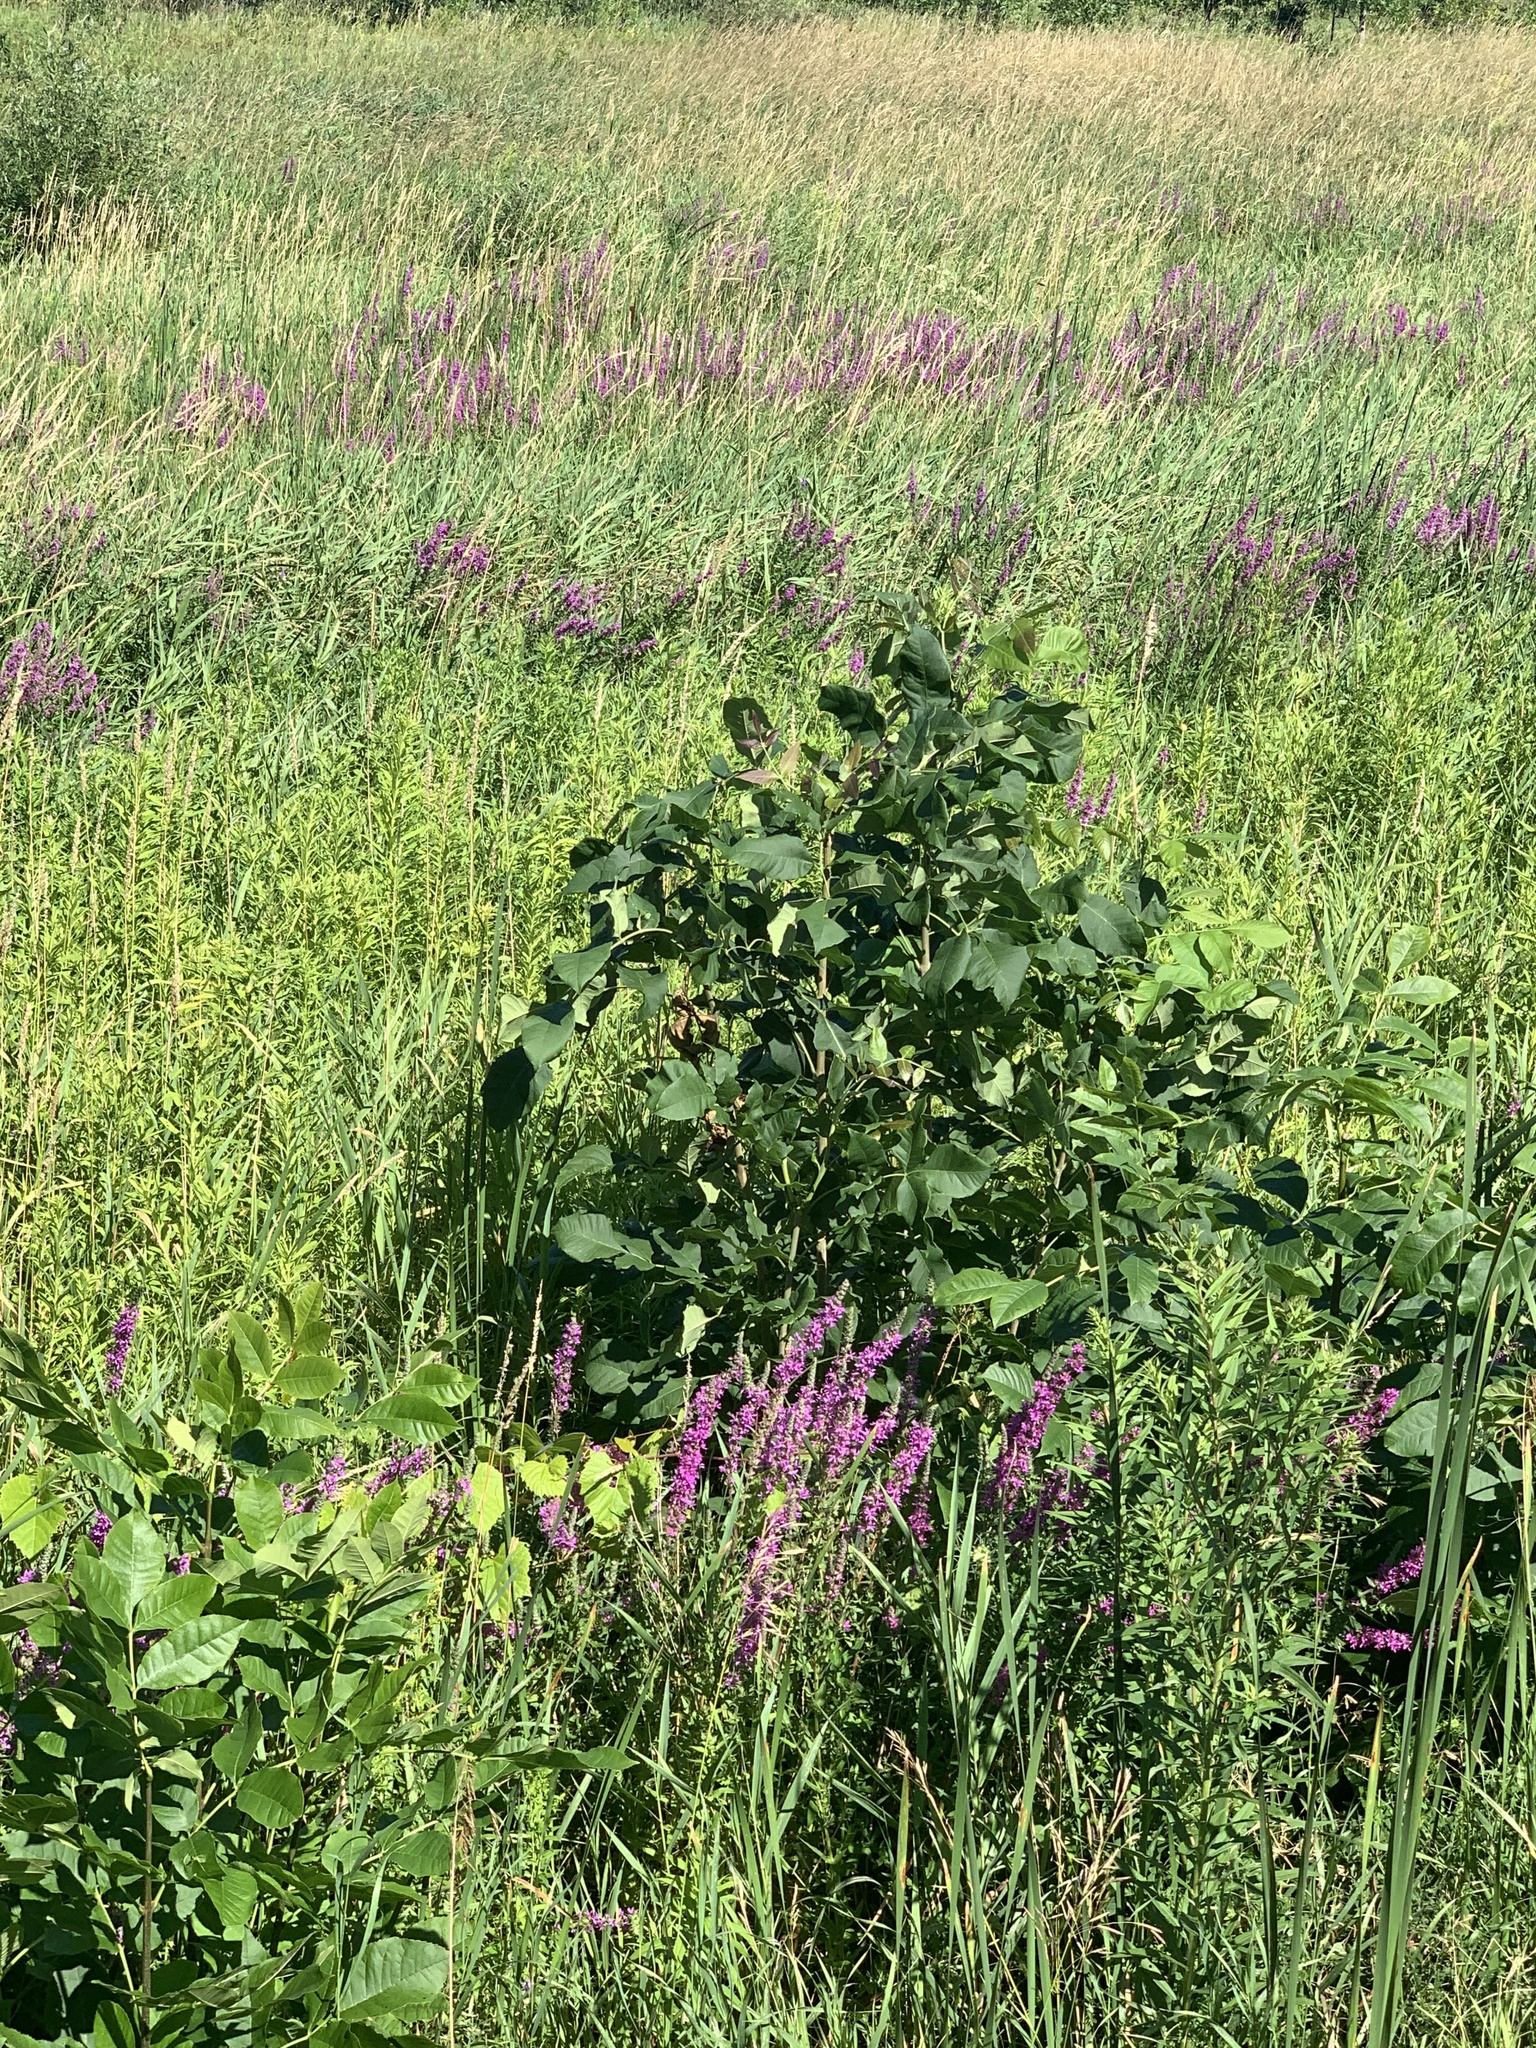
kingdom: Plantae
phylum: Tracheophyta
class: Magnoliopsida
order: Myrtales
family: Lythraceae
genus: Lythrum
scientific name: Lythrum salicaria
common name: Purple loosestrife
